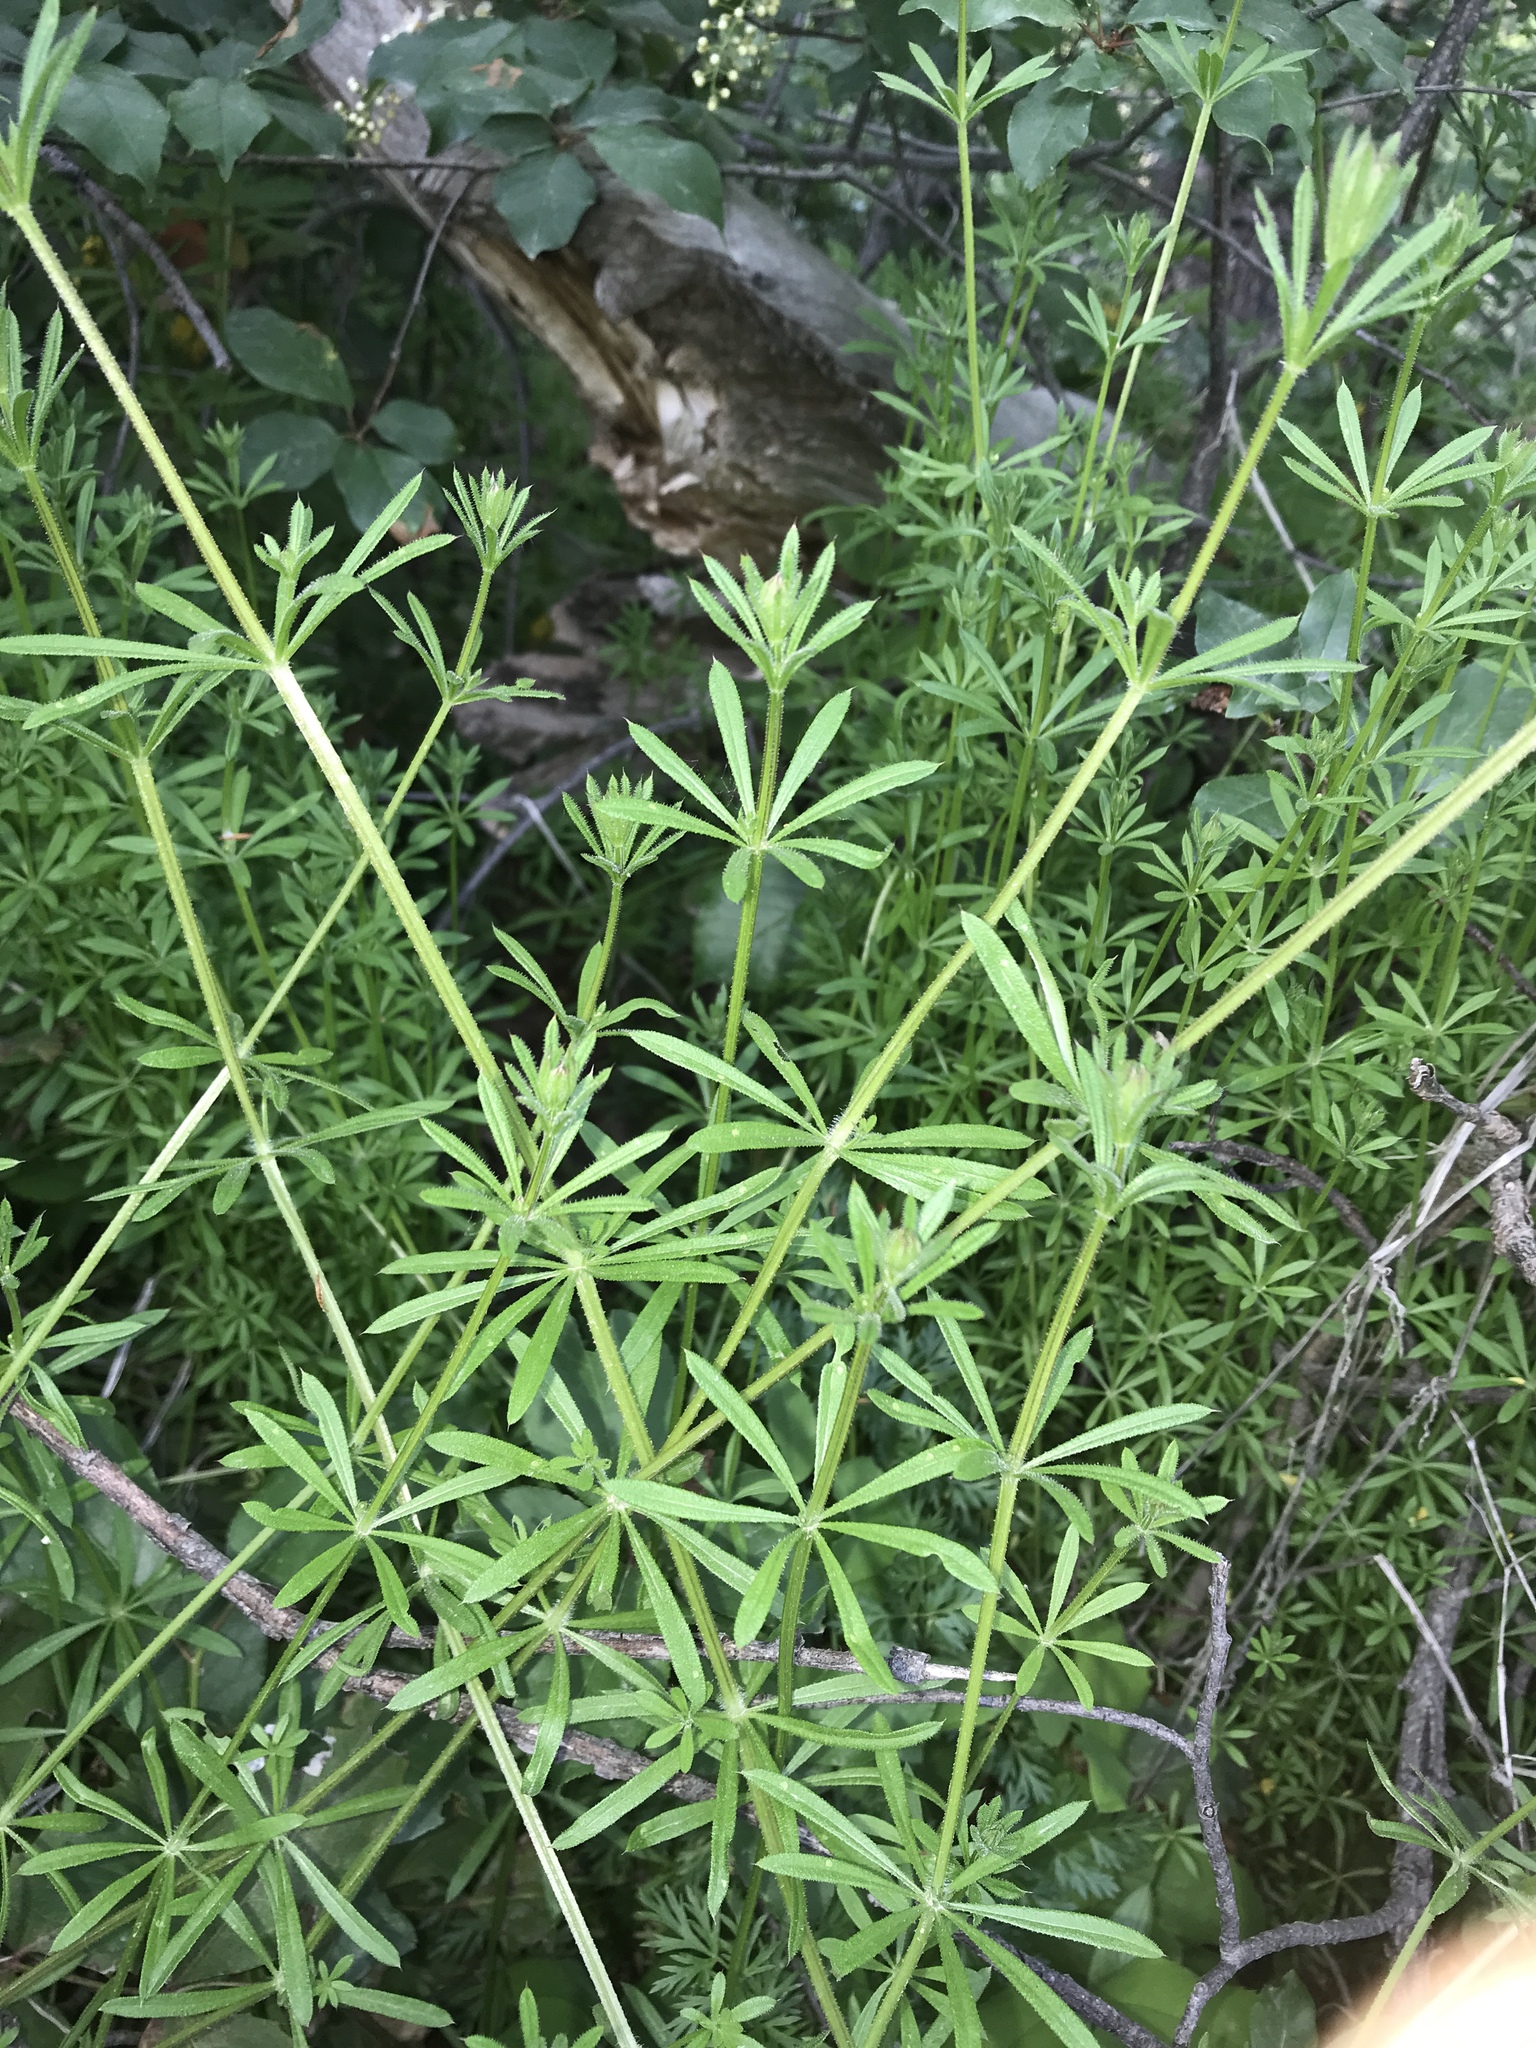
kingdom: Plantae
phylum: Tracheophyta
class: Magnoliopsida
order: Gentianales
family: Rubiaceae
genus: Galium
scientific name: Galium aparine
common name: Cleavers
